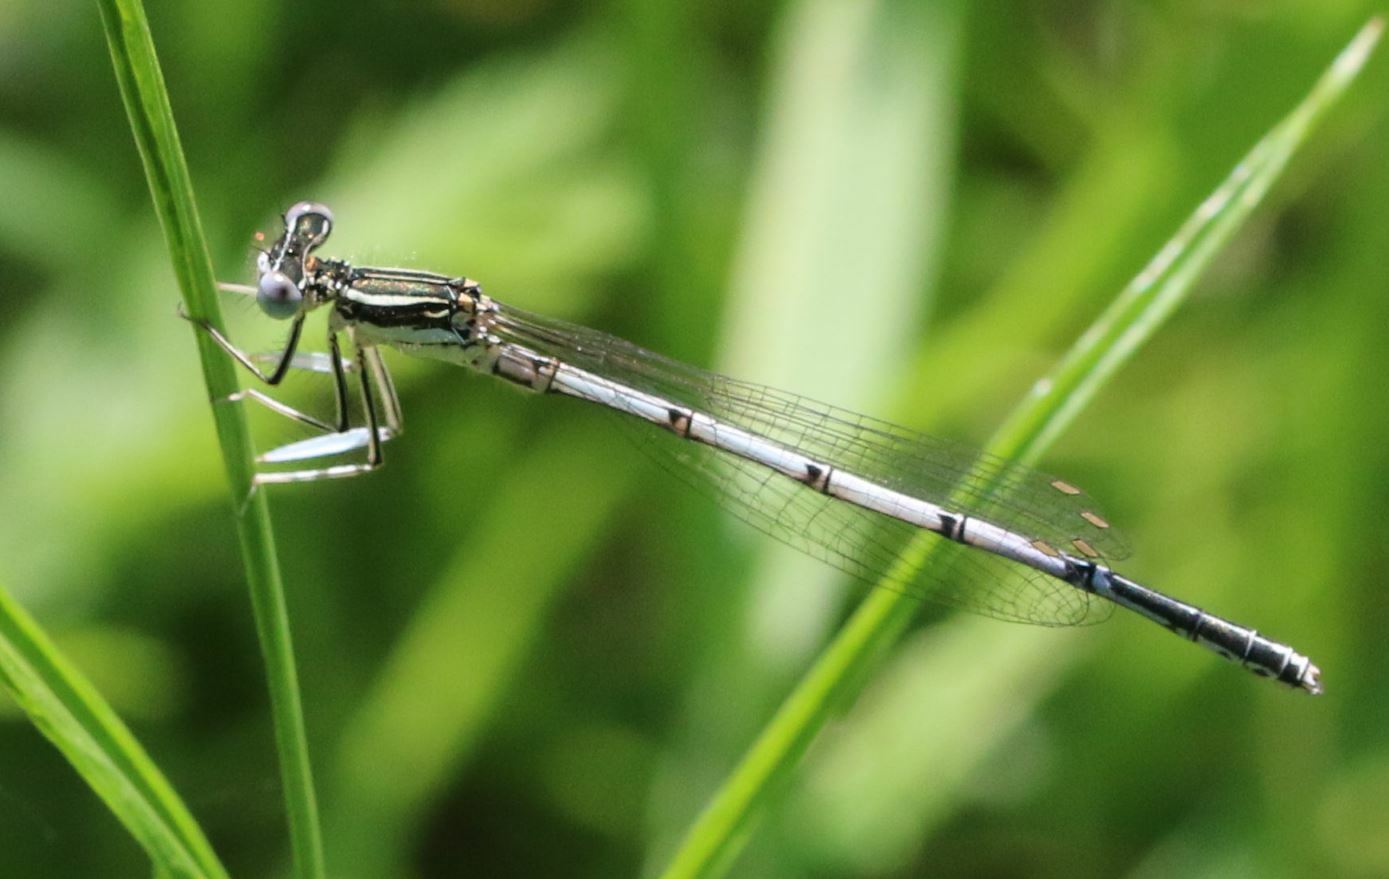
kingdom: Animalia
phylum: Arthropoda
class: Insecta
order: Odonata
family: Platycnemididae
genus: Platycnemis
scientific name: Platycnemis pennipes
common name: White-legged damselfly
